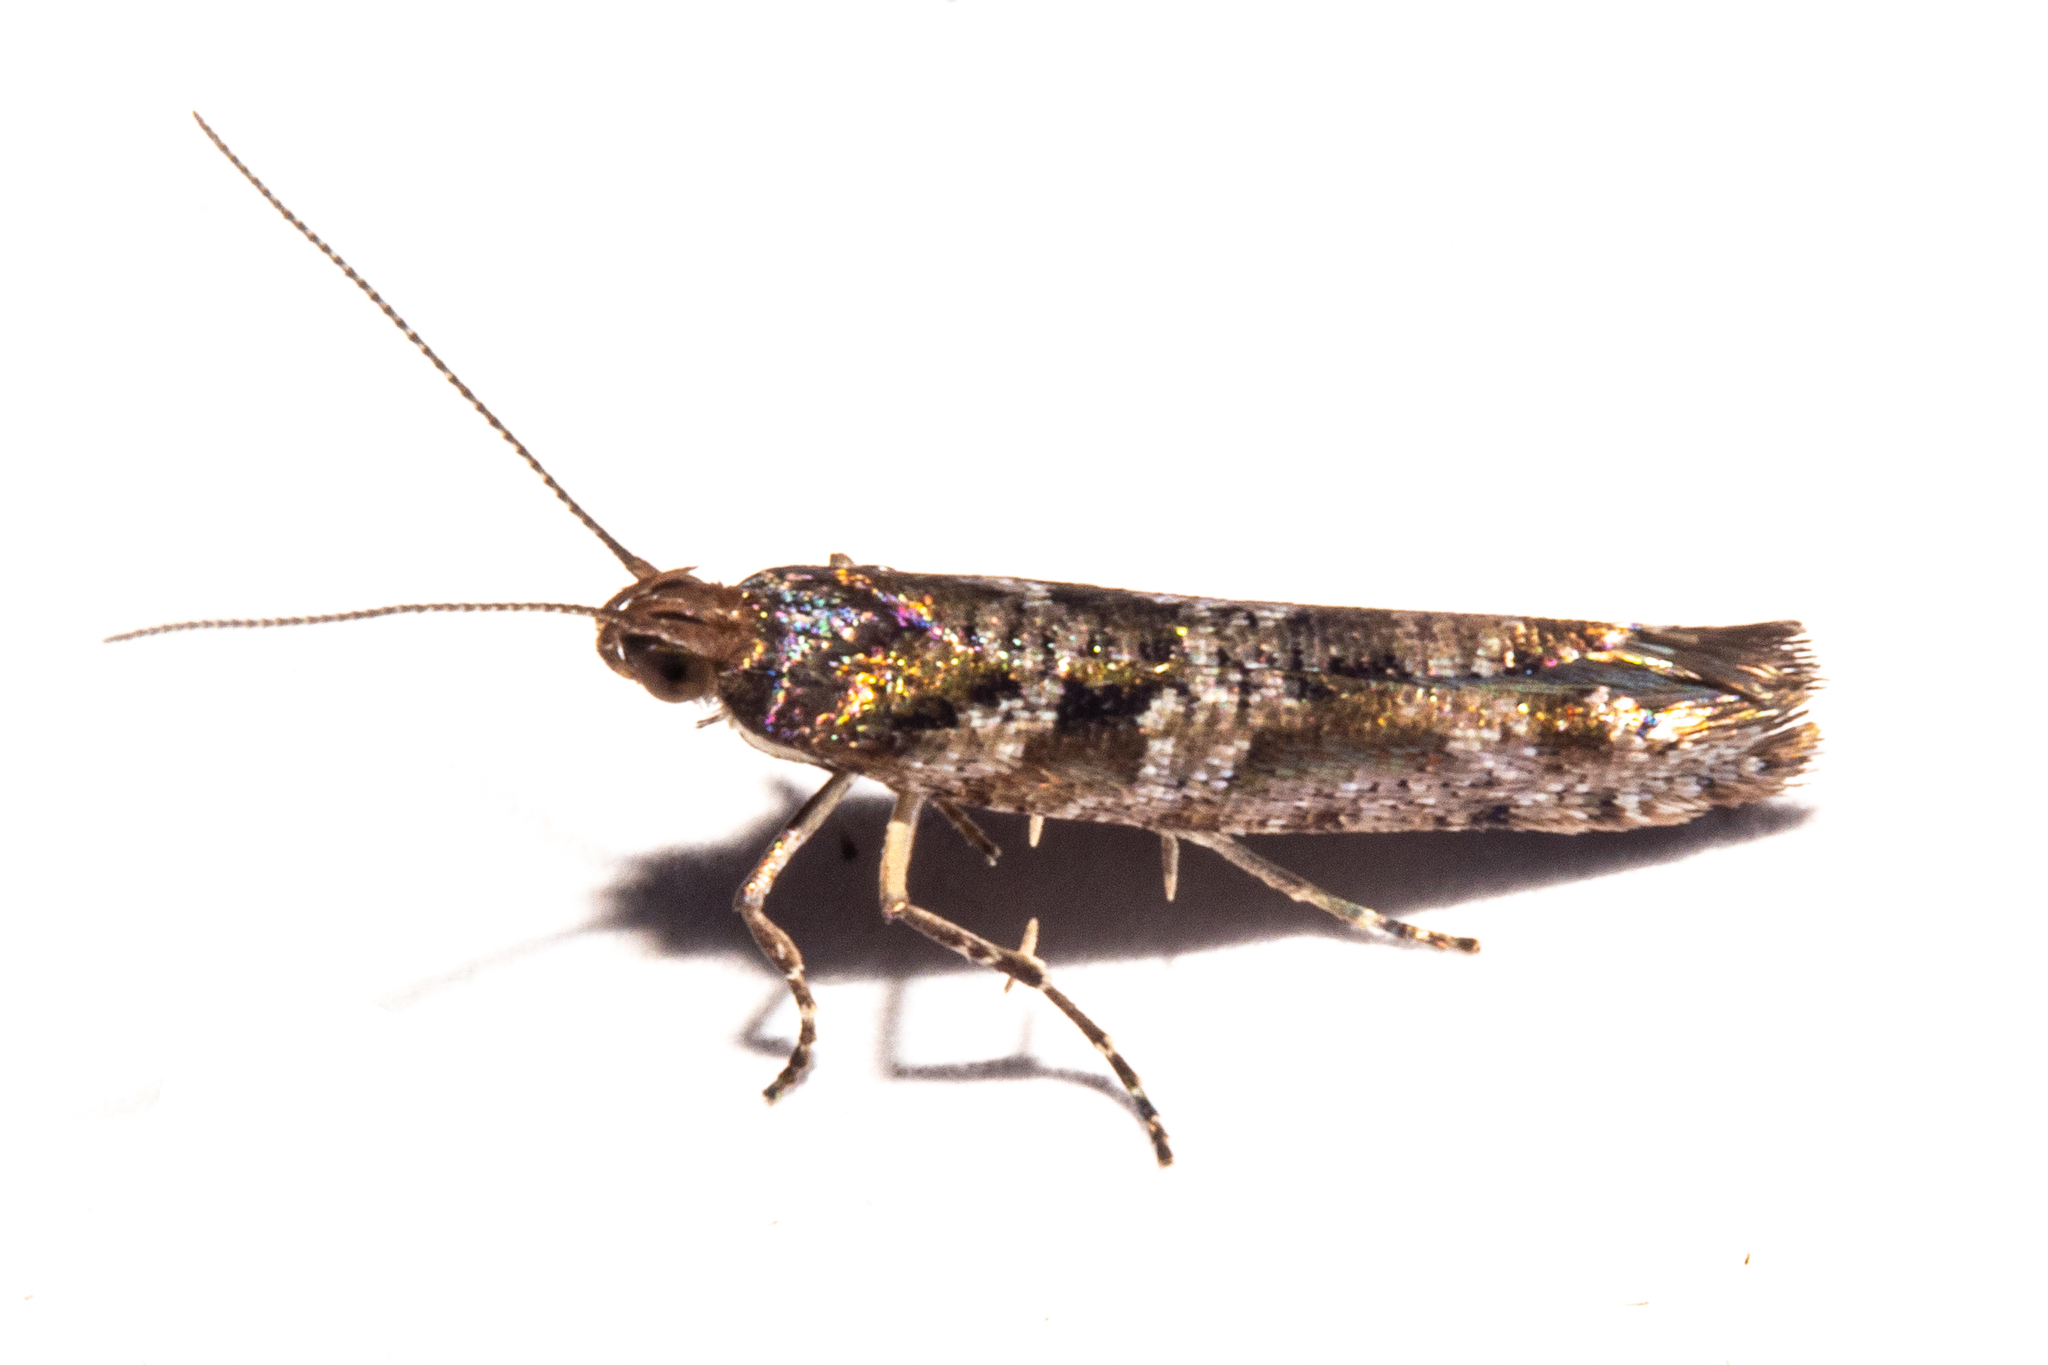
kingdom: Animalia
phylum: Arthropoda
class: Insecta
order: Lepidoptera
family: Glyphipterigidae
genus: Chrysorthenches
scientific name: Chrysorthenches porphyritis
